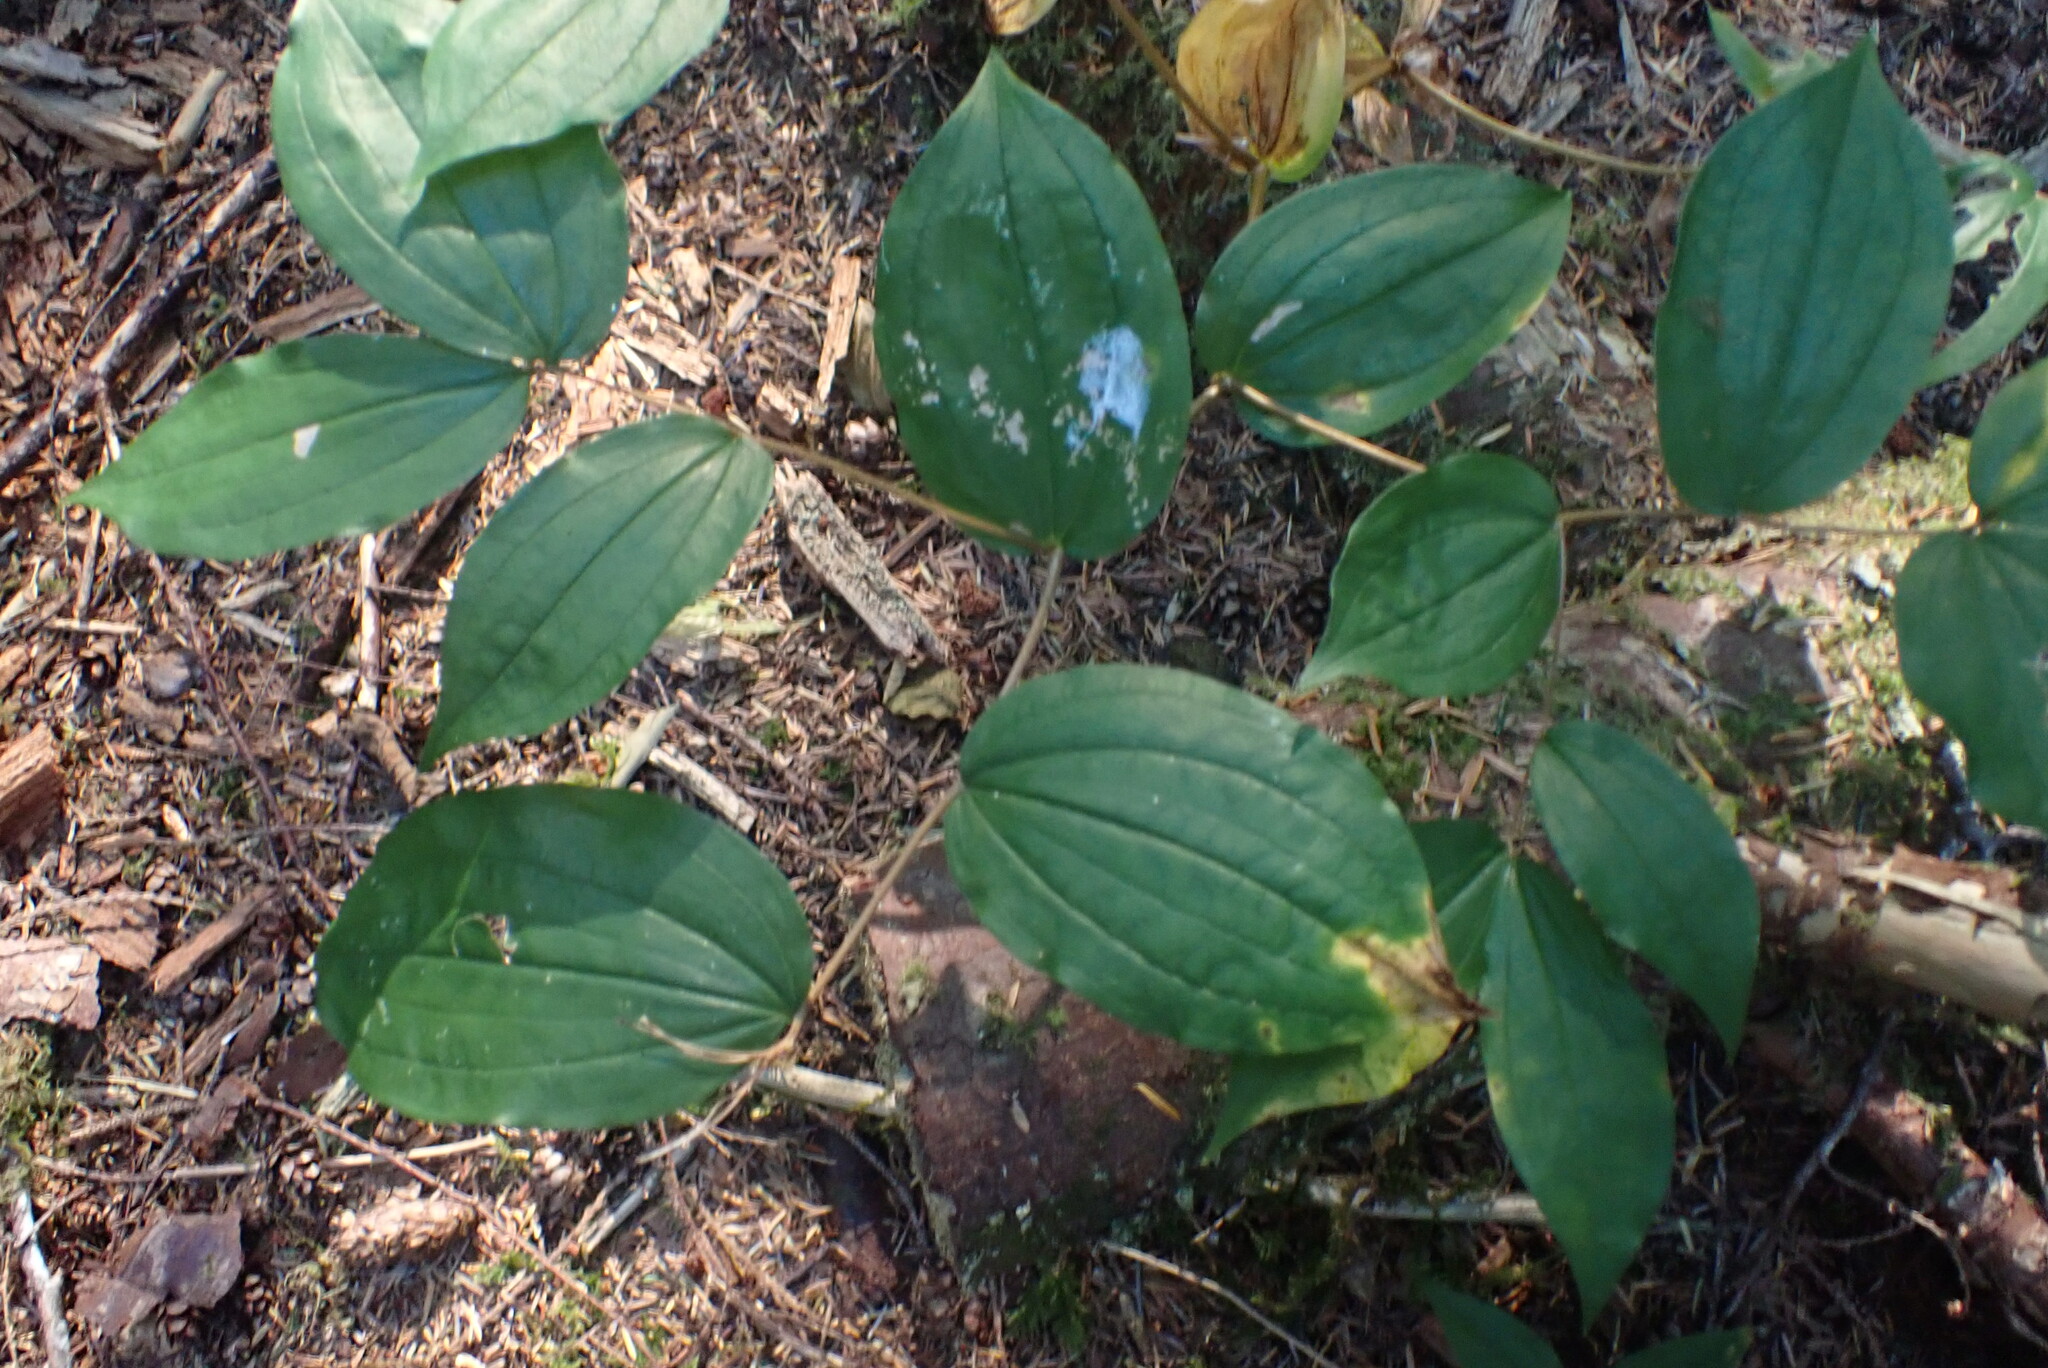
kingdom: Plantae
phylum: Tracheophyta
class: Liliopsida
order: Liliales
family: Liliaceae
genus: Prosartes
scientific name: Prosartes smithii
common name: Fairy-lantern
